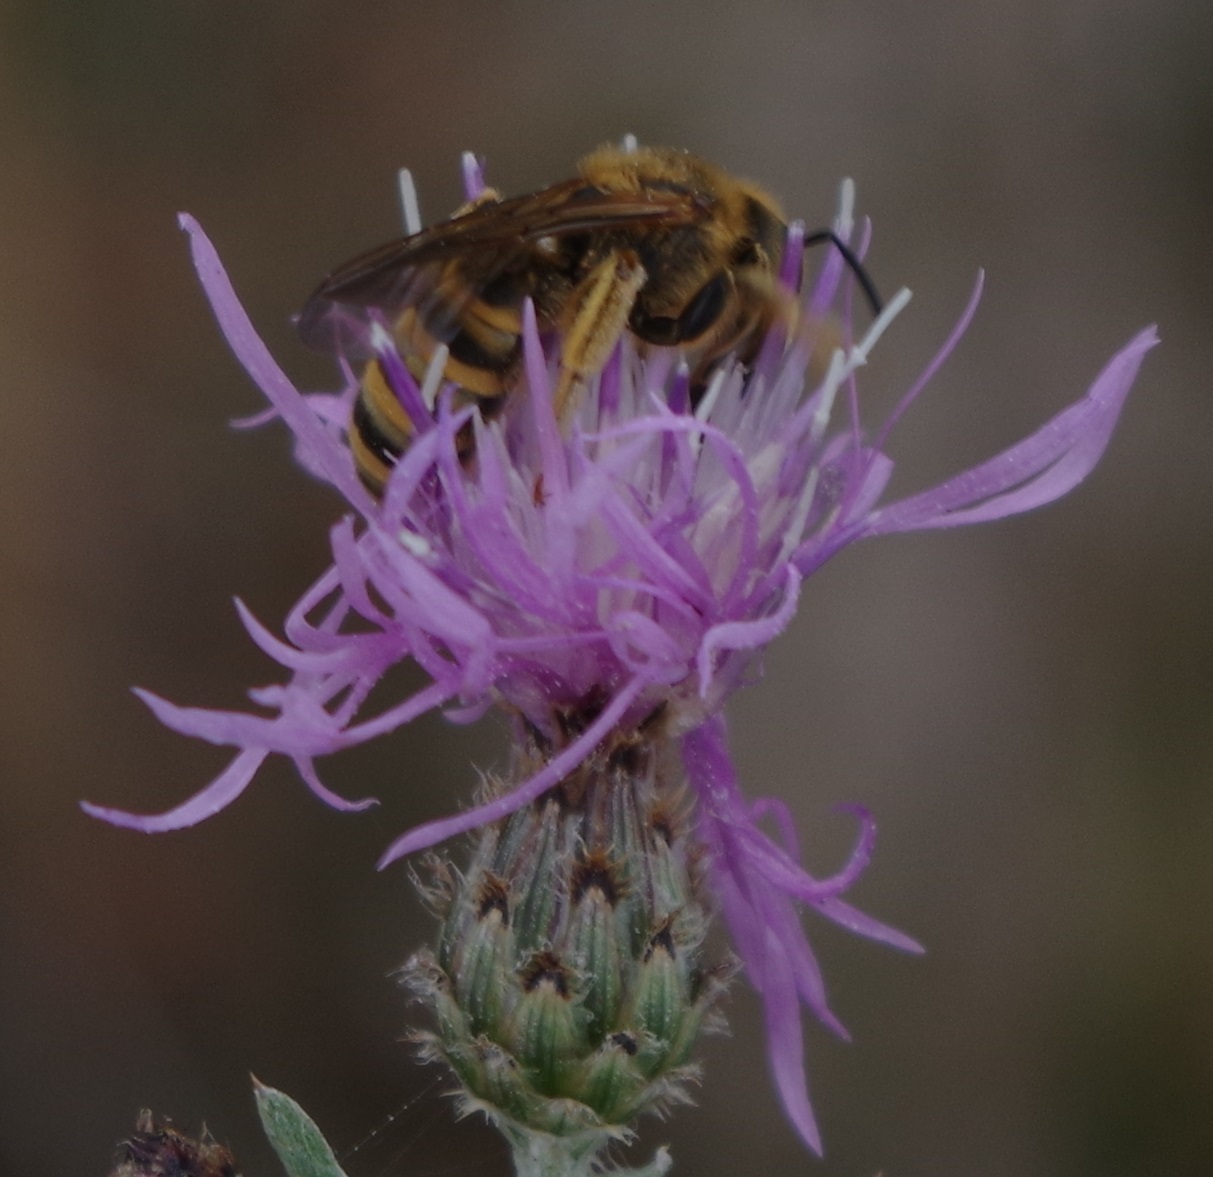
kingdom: Animalia
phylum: Arthropoda
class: Insecta
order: Hymenoptera
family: Halictidae
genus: Halictus
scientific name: Halictus scabiosae
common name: Great banded furrow bee
